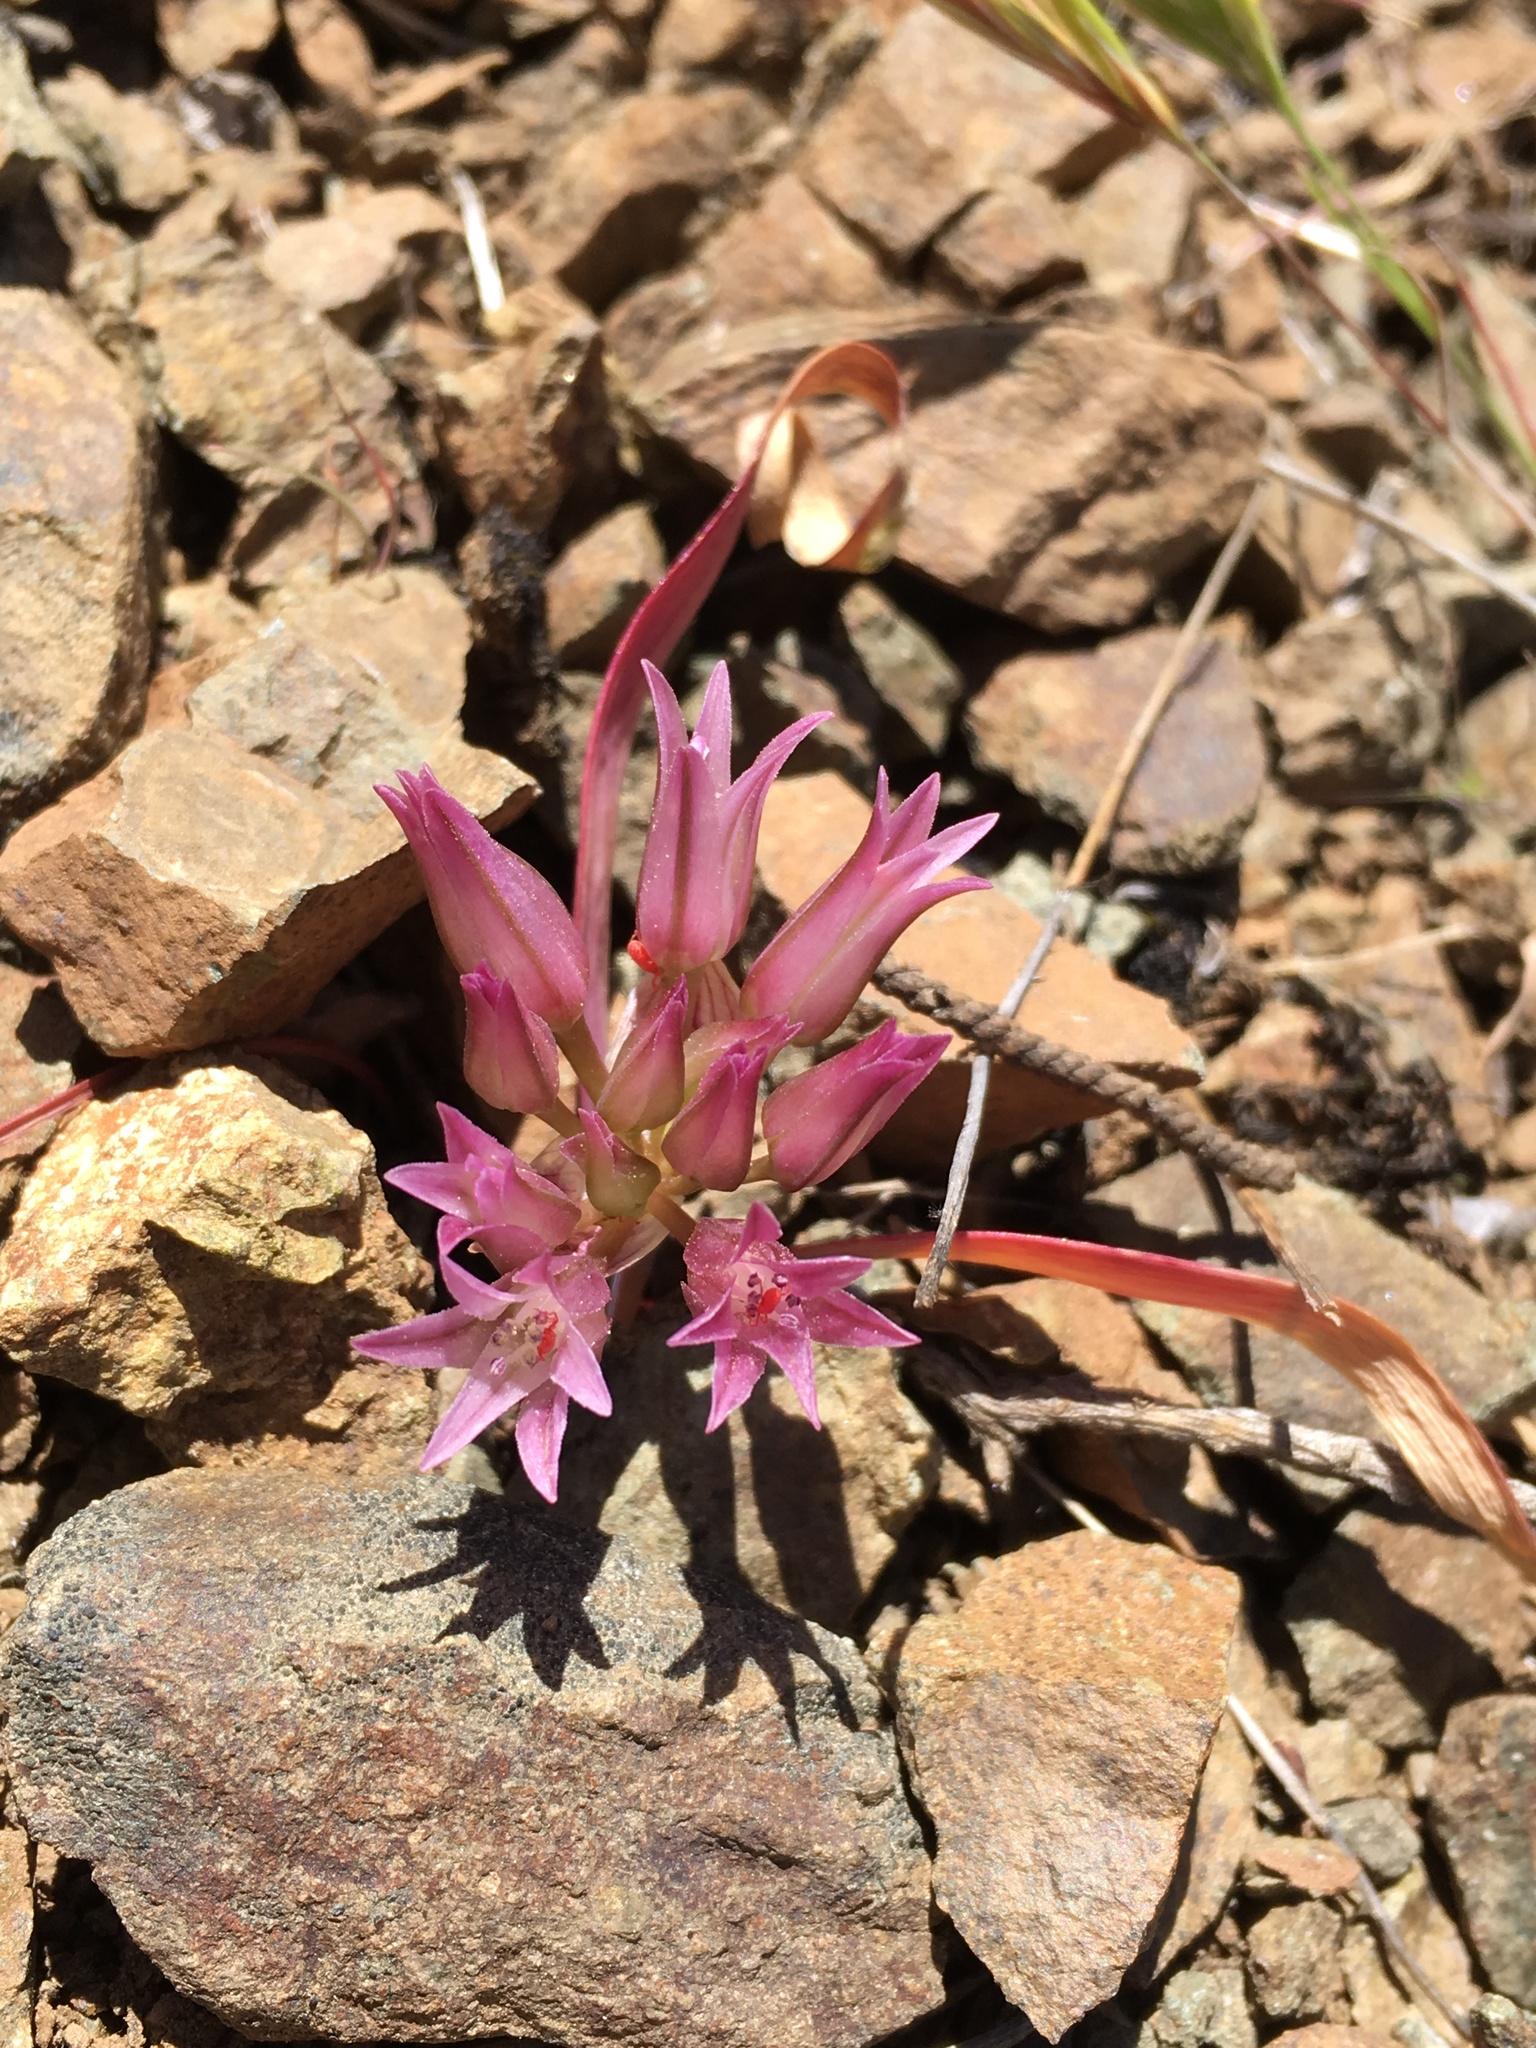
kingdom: Plantae
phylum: Tracheophyta
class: Liliopsida
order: Asparagales
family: Amaryllidaceae
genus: Allium
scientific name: Allium falcifolium
